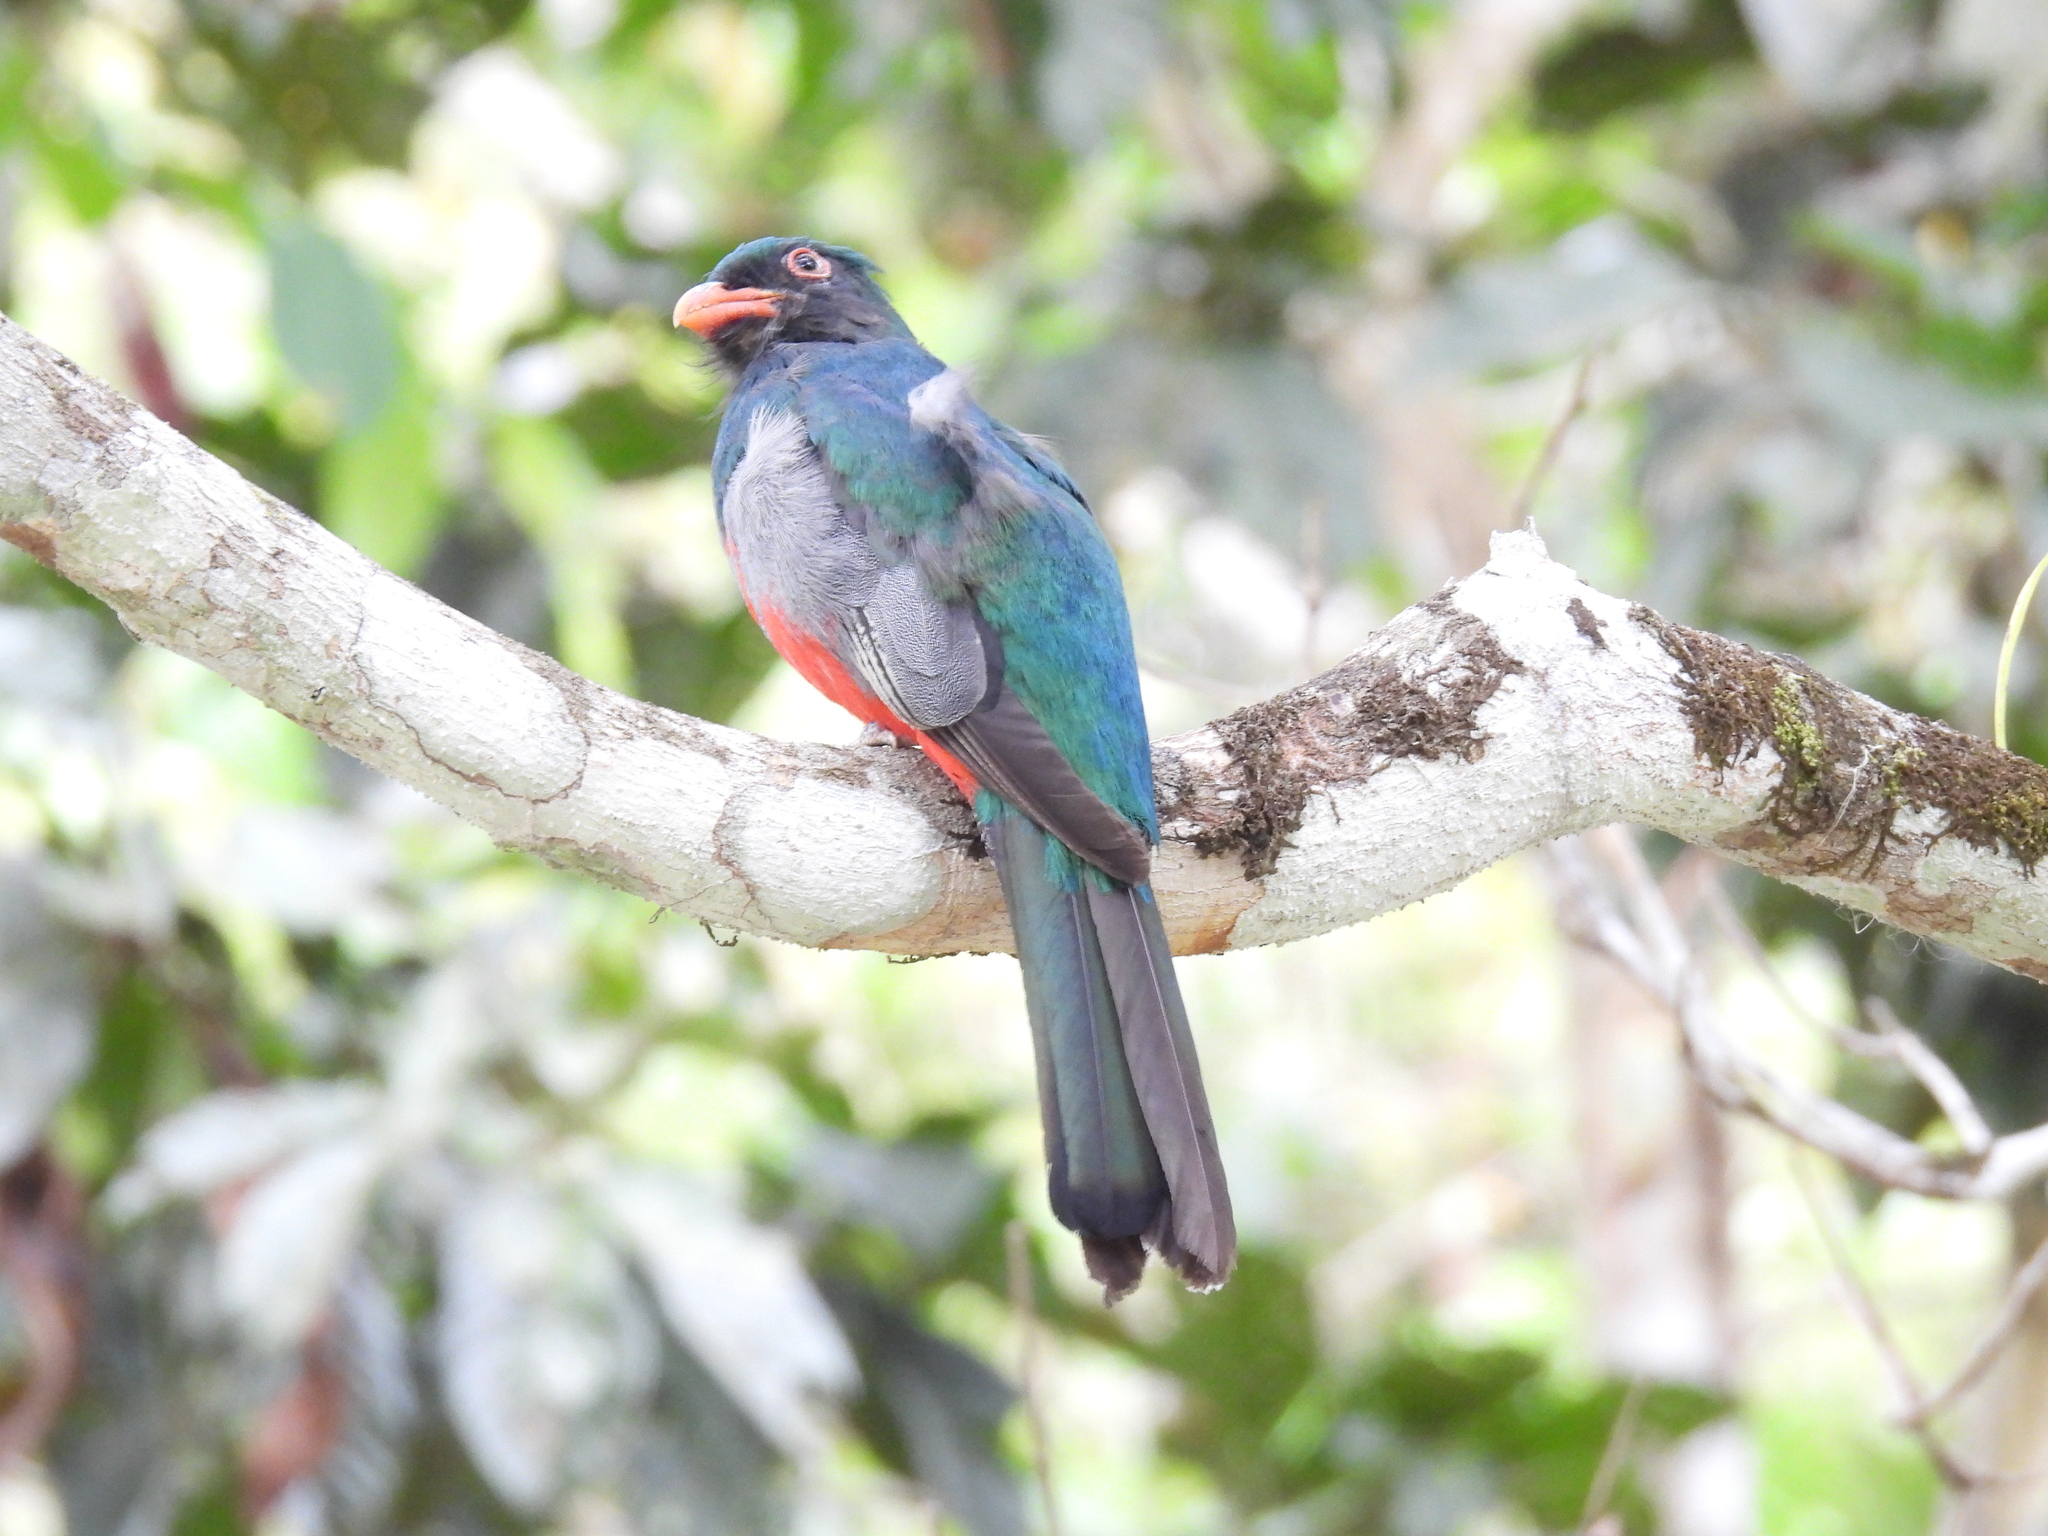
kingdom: Animalia
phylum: Chordata
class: Aves
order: Trogoniformes
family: Trogonidae
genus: Trogon
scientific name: Trogon massena
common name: Slaty-tailed trogon
